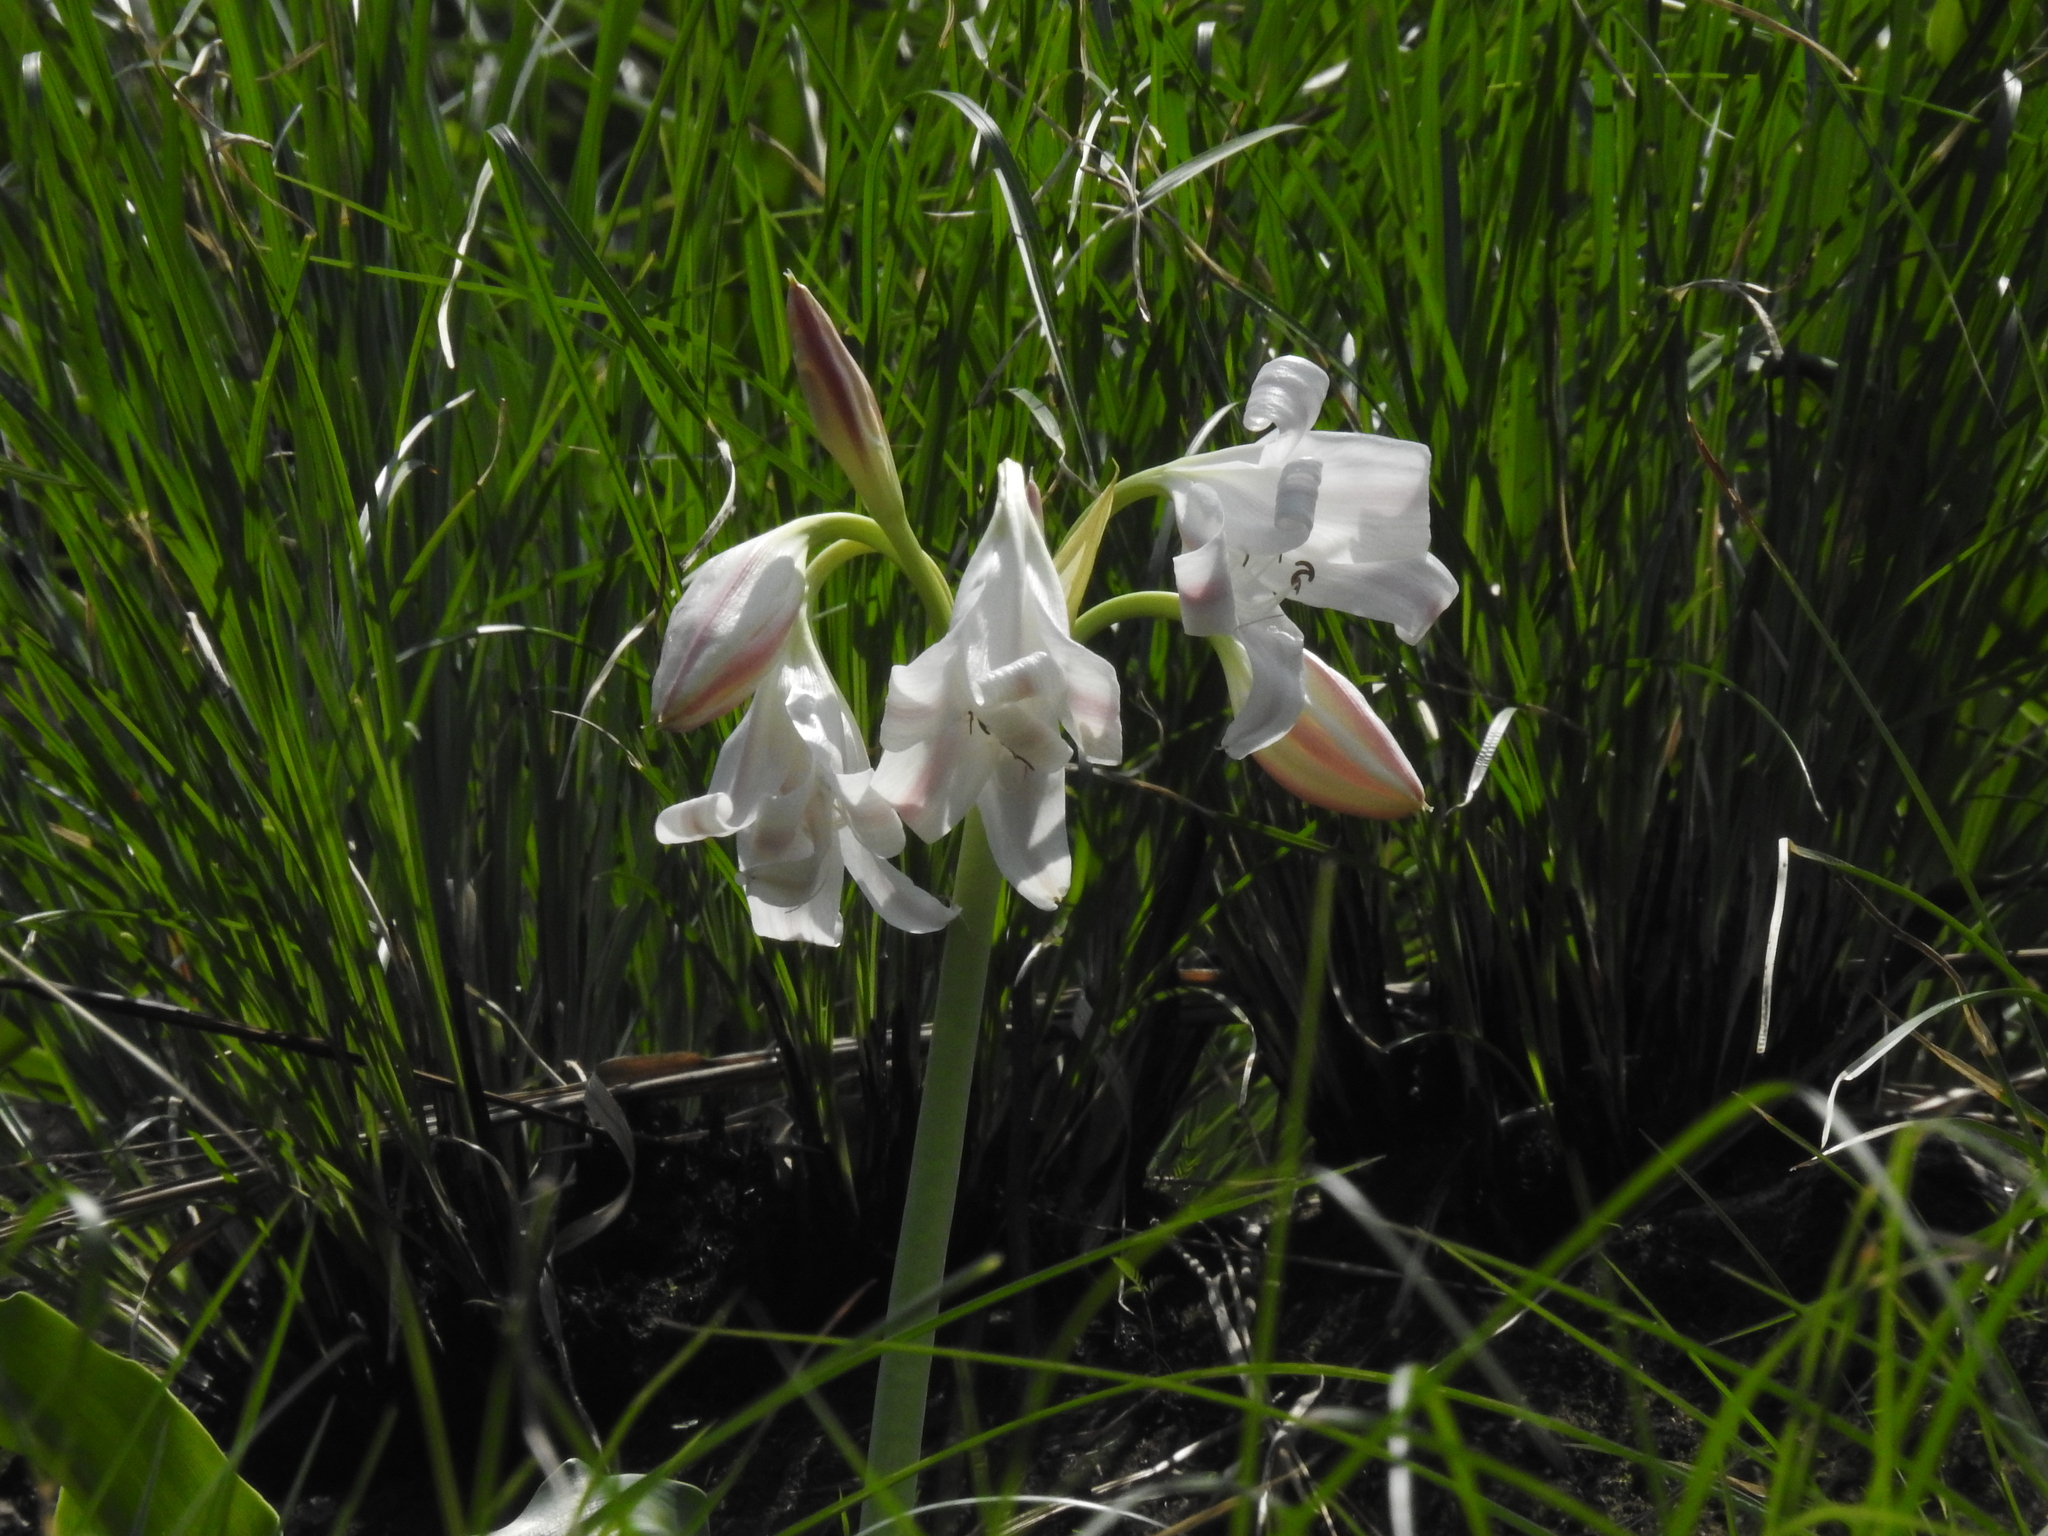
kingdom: Plantae
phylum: Tracheophyta
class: Liliopsida
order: Asparagales
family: Amaryllidaceae
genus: Crinum
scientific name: Crinum latifolium
